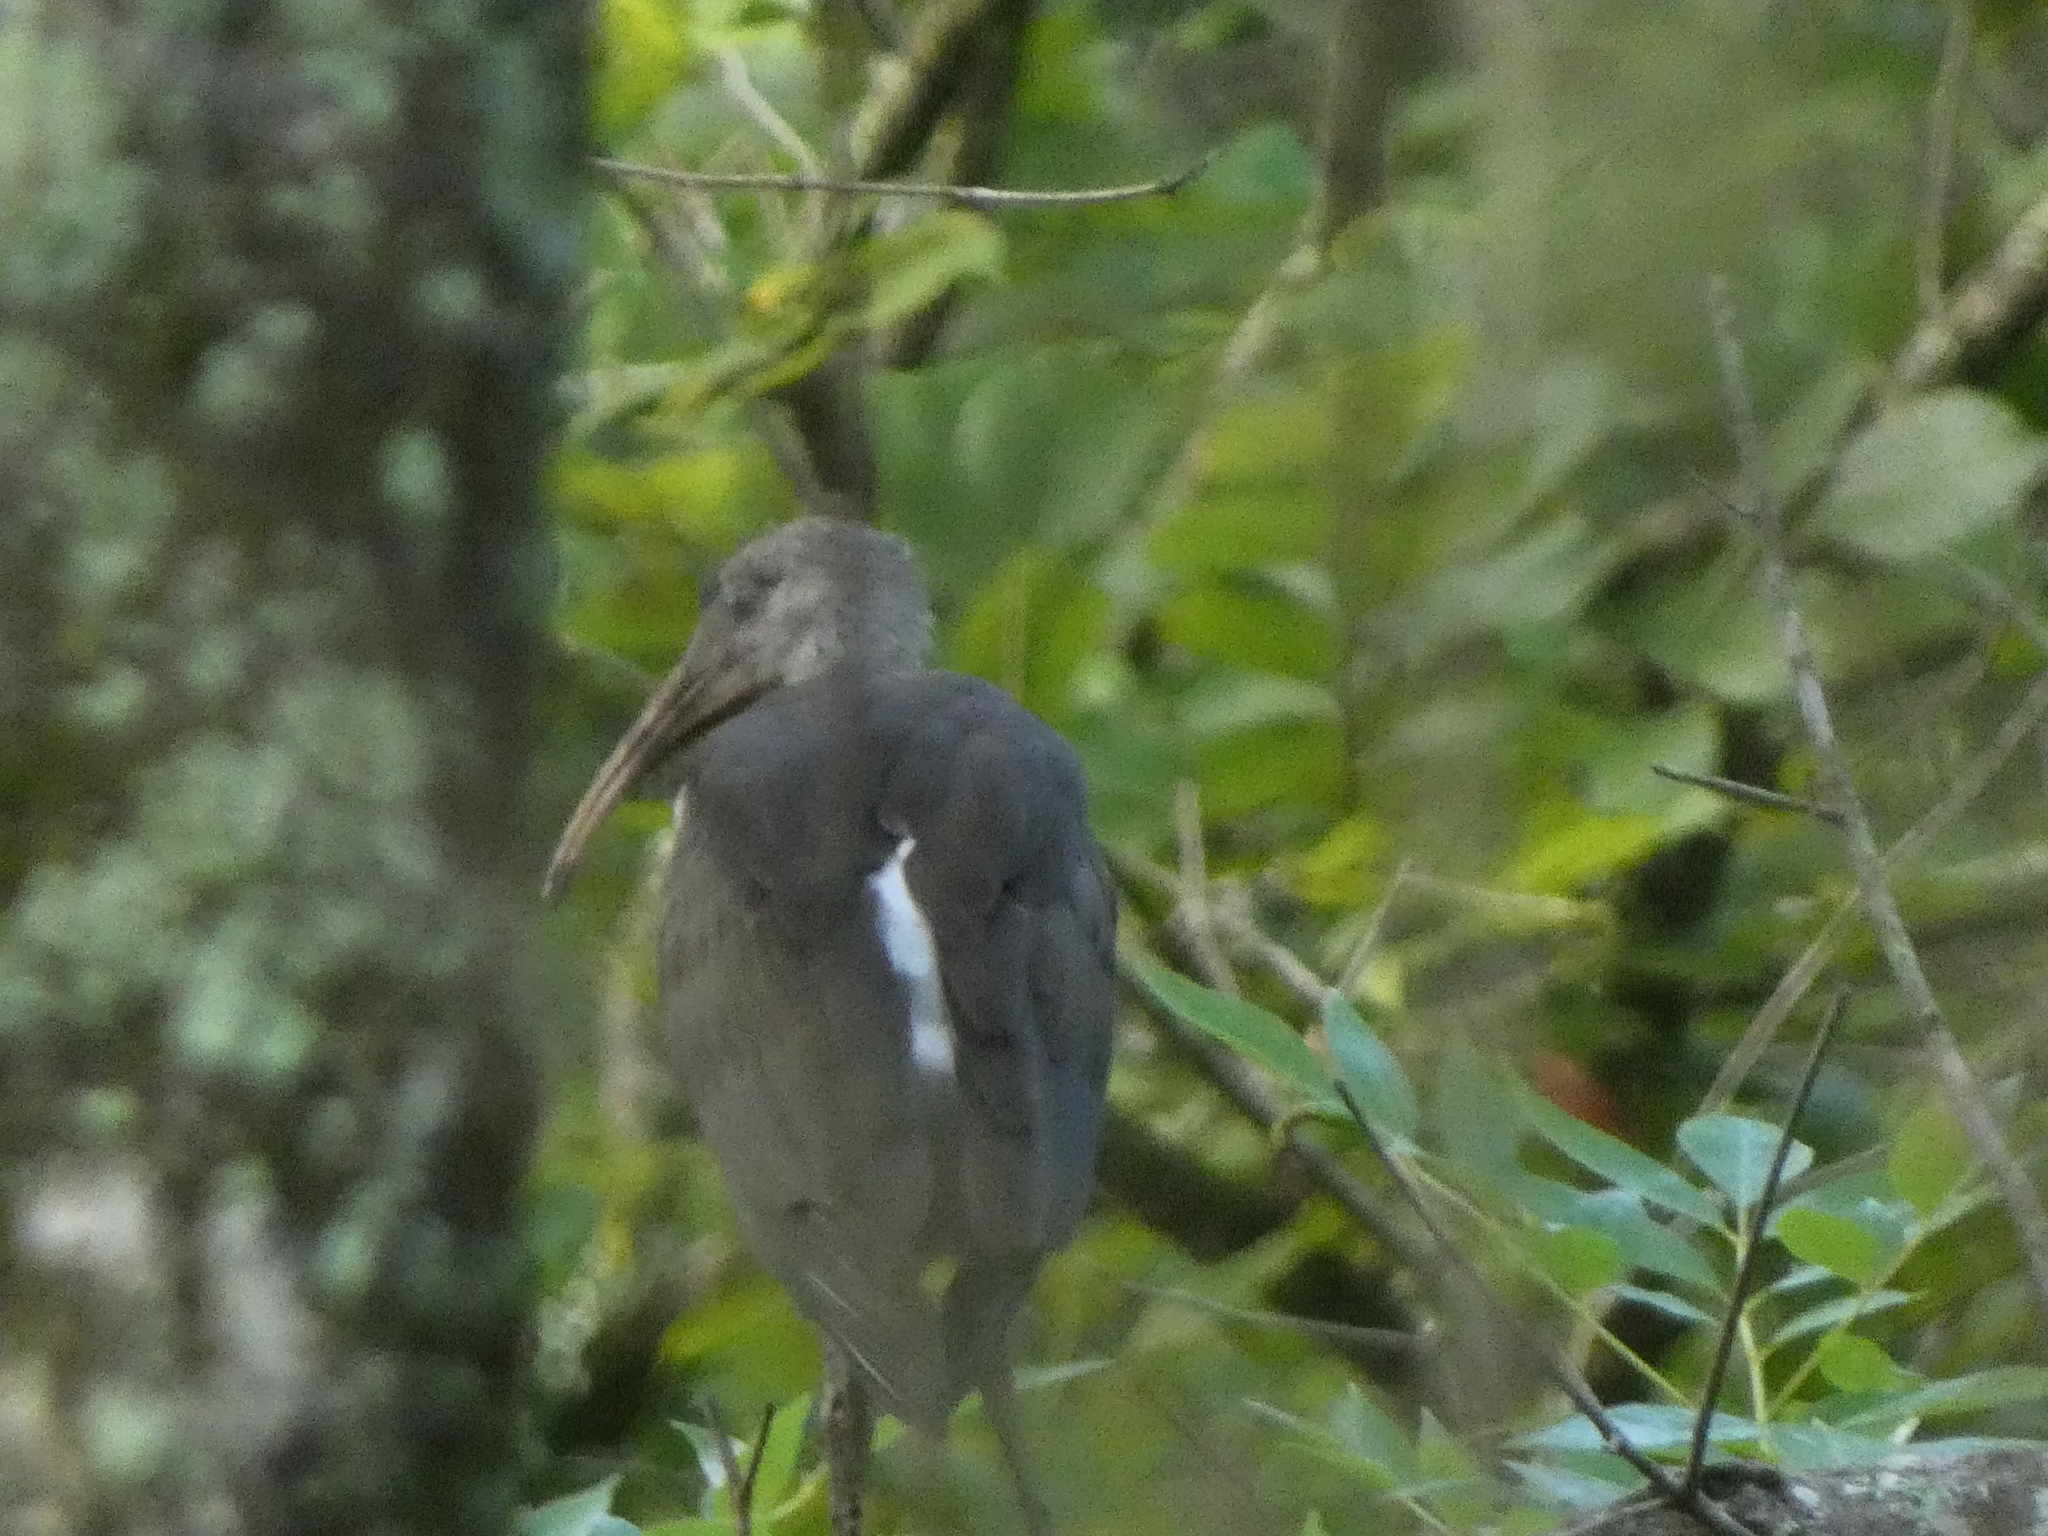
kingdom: Animalia
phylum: Chordata
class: Aves
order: Pelecaniformes
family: Threskiornithidae
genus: Eudocimus
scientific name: Eudocimus albus
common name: White ibis
